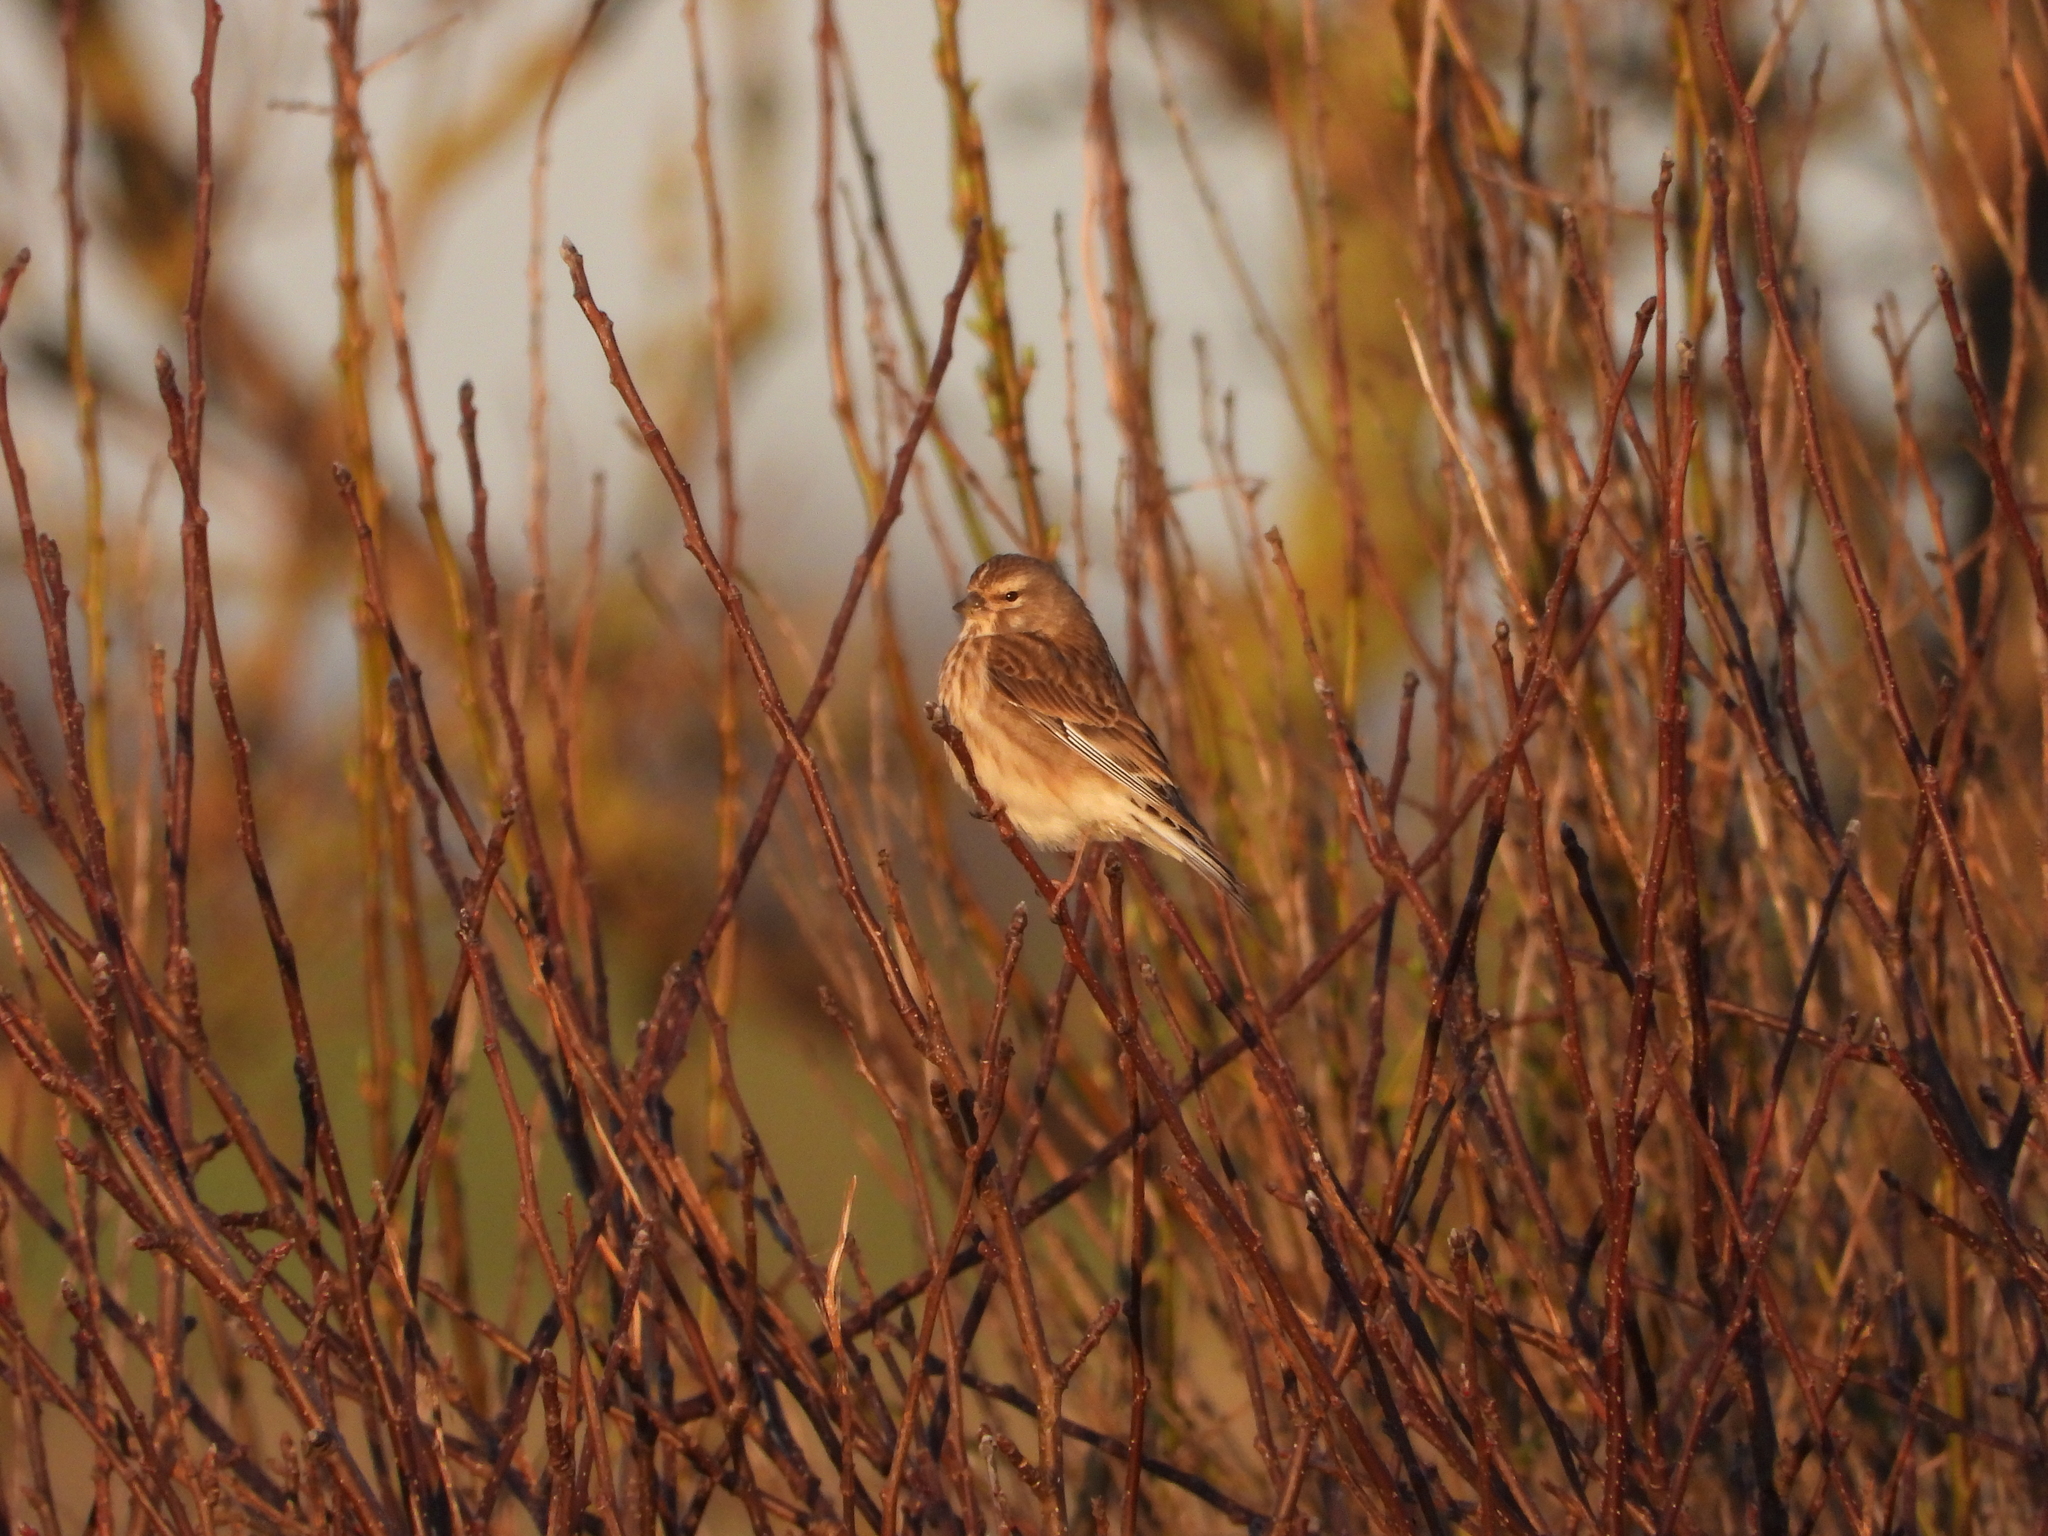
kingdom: Animalia
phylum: Chordata
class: Aves
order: Passeriformes
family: Fringillidae
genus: Linaria
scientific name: Linaria cannabina
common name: Common linnet
